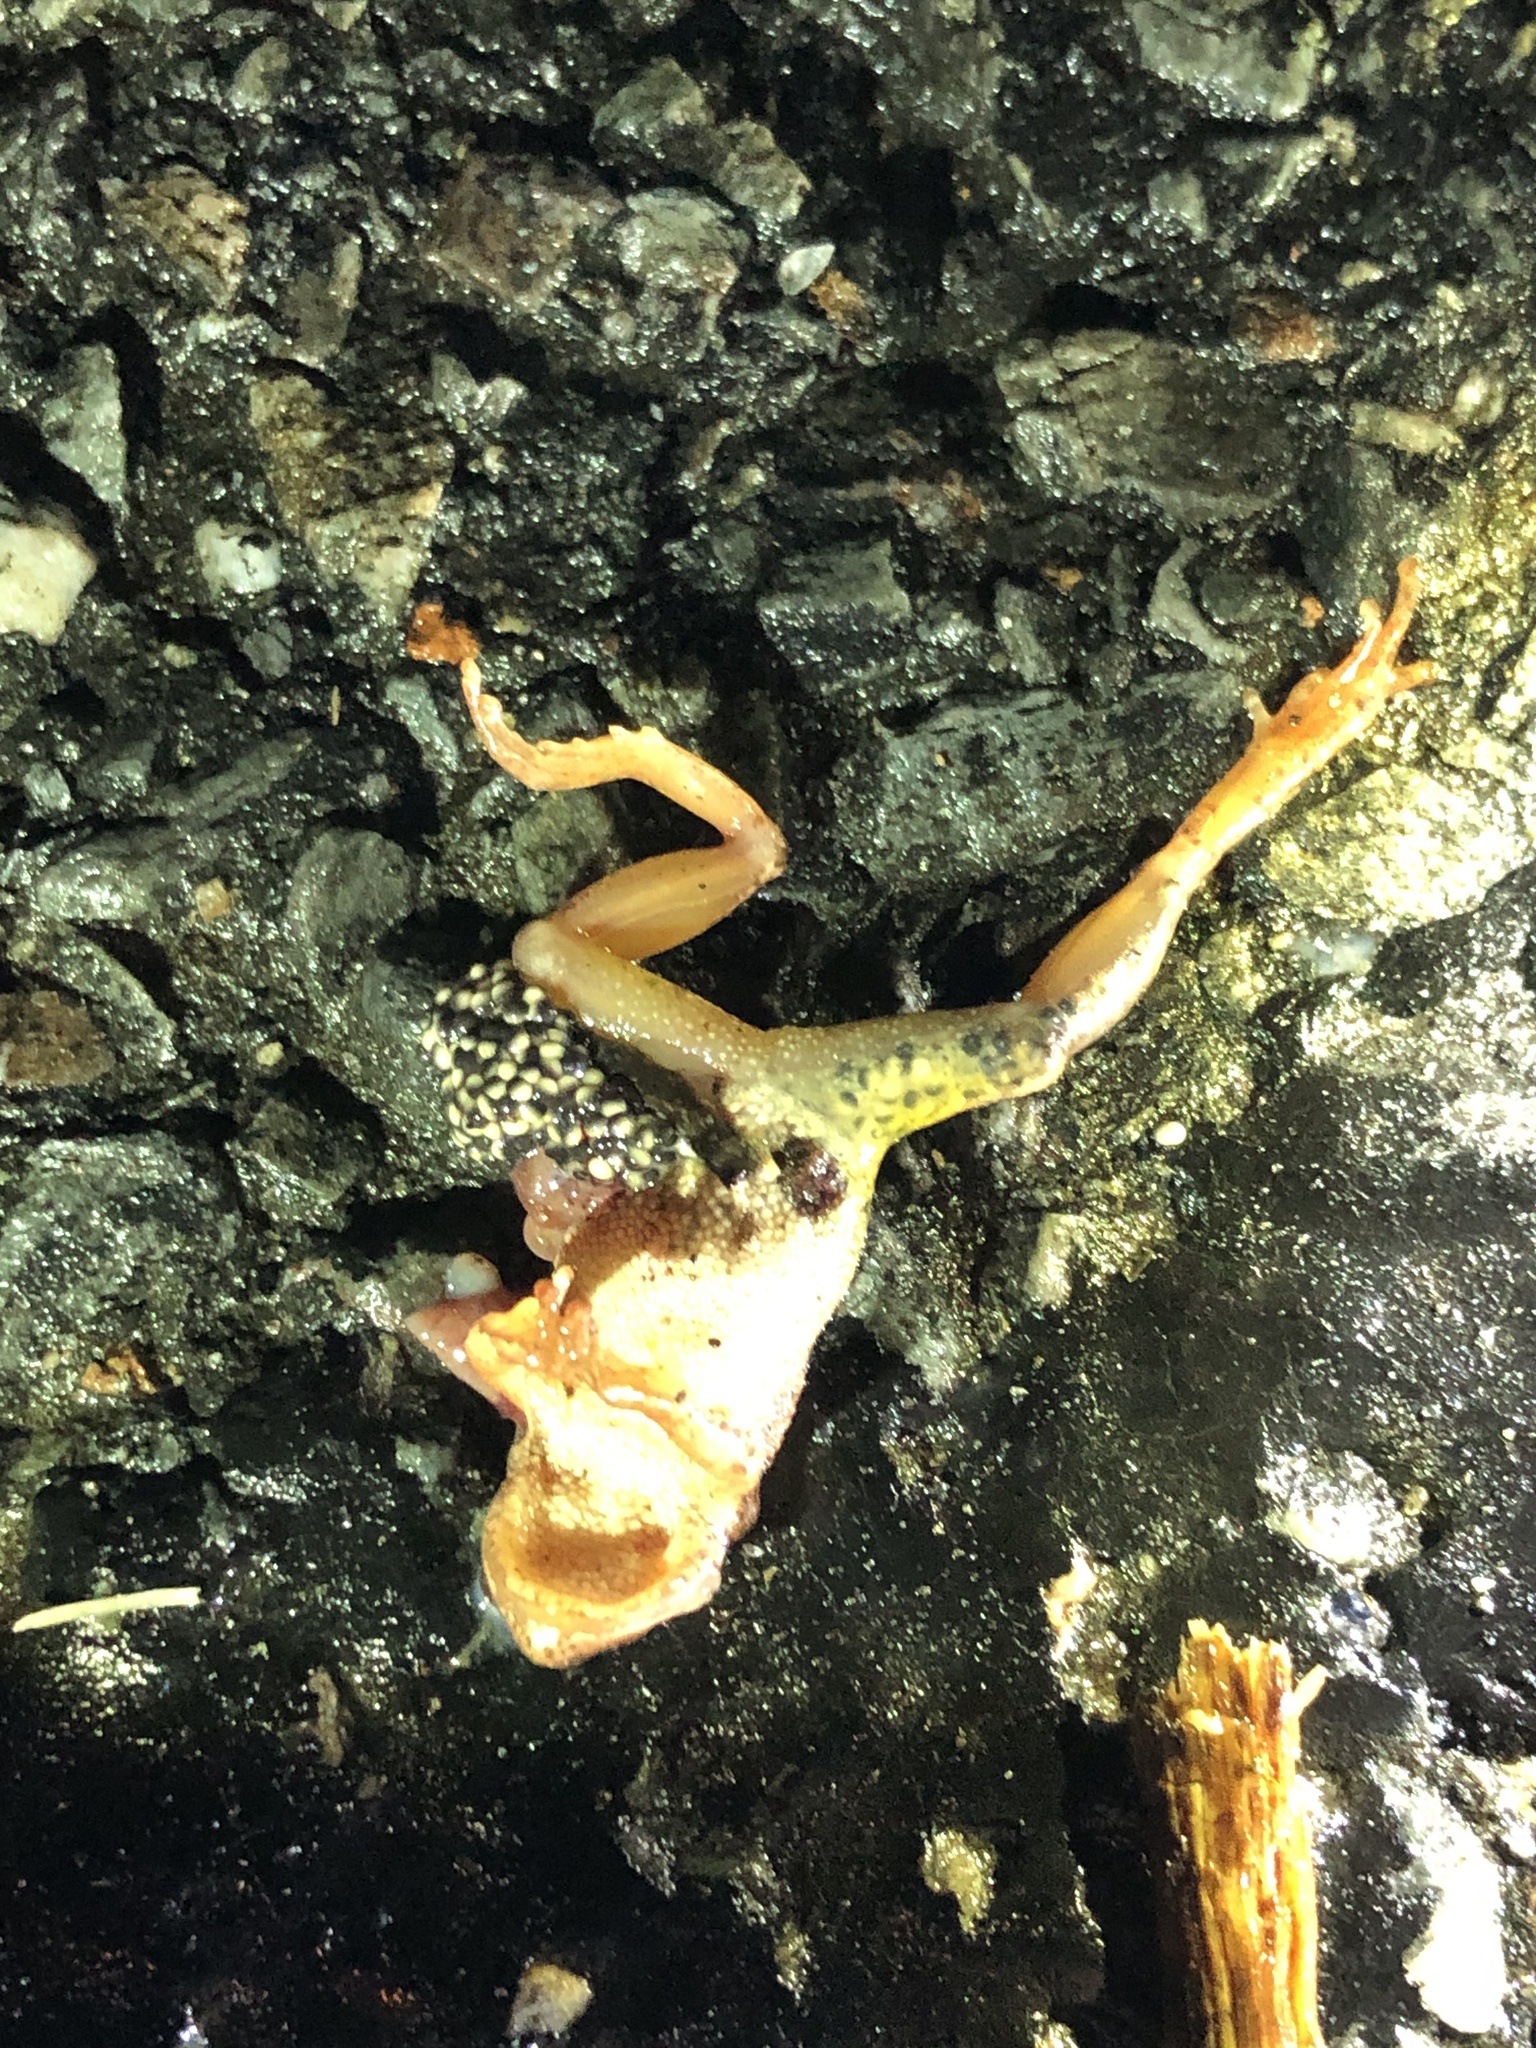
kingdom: Animalia
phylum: Chordata
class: Amphibia
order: Anura
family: Hylidae
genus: Pseudacris
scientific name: Pseudacris crucifer
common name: Spring peeper
